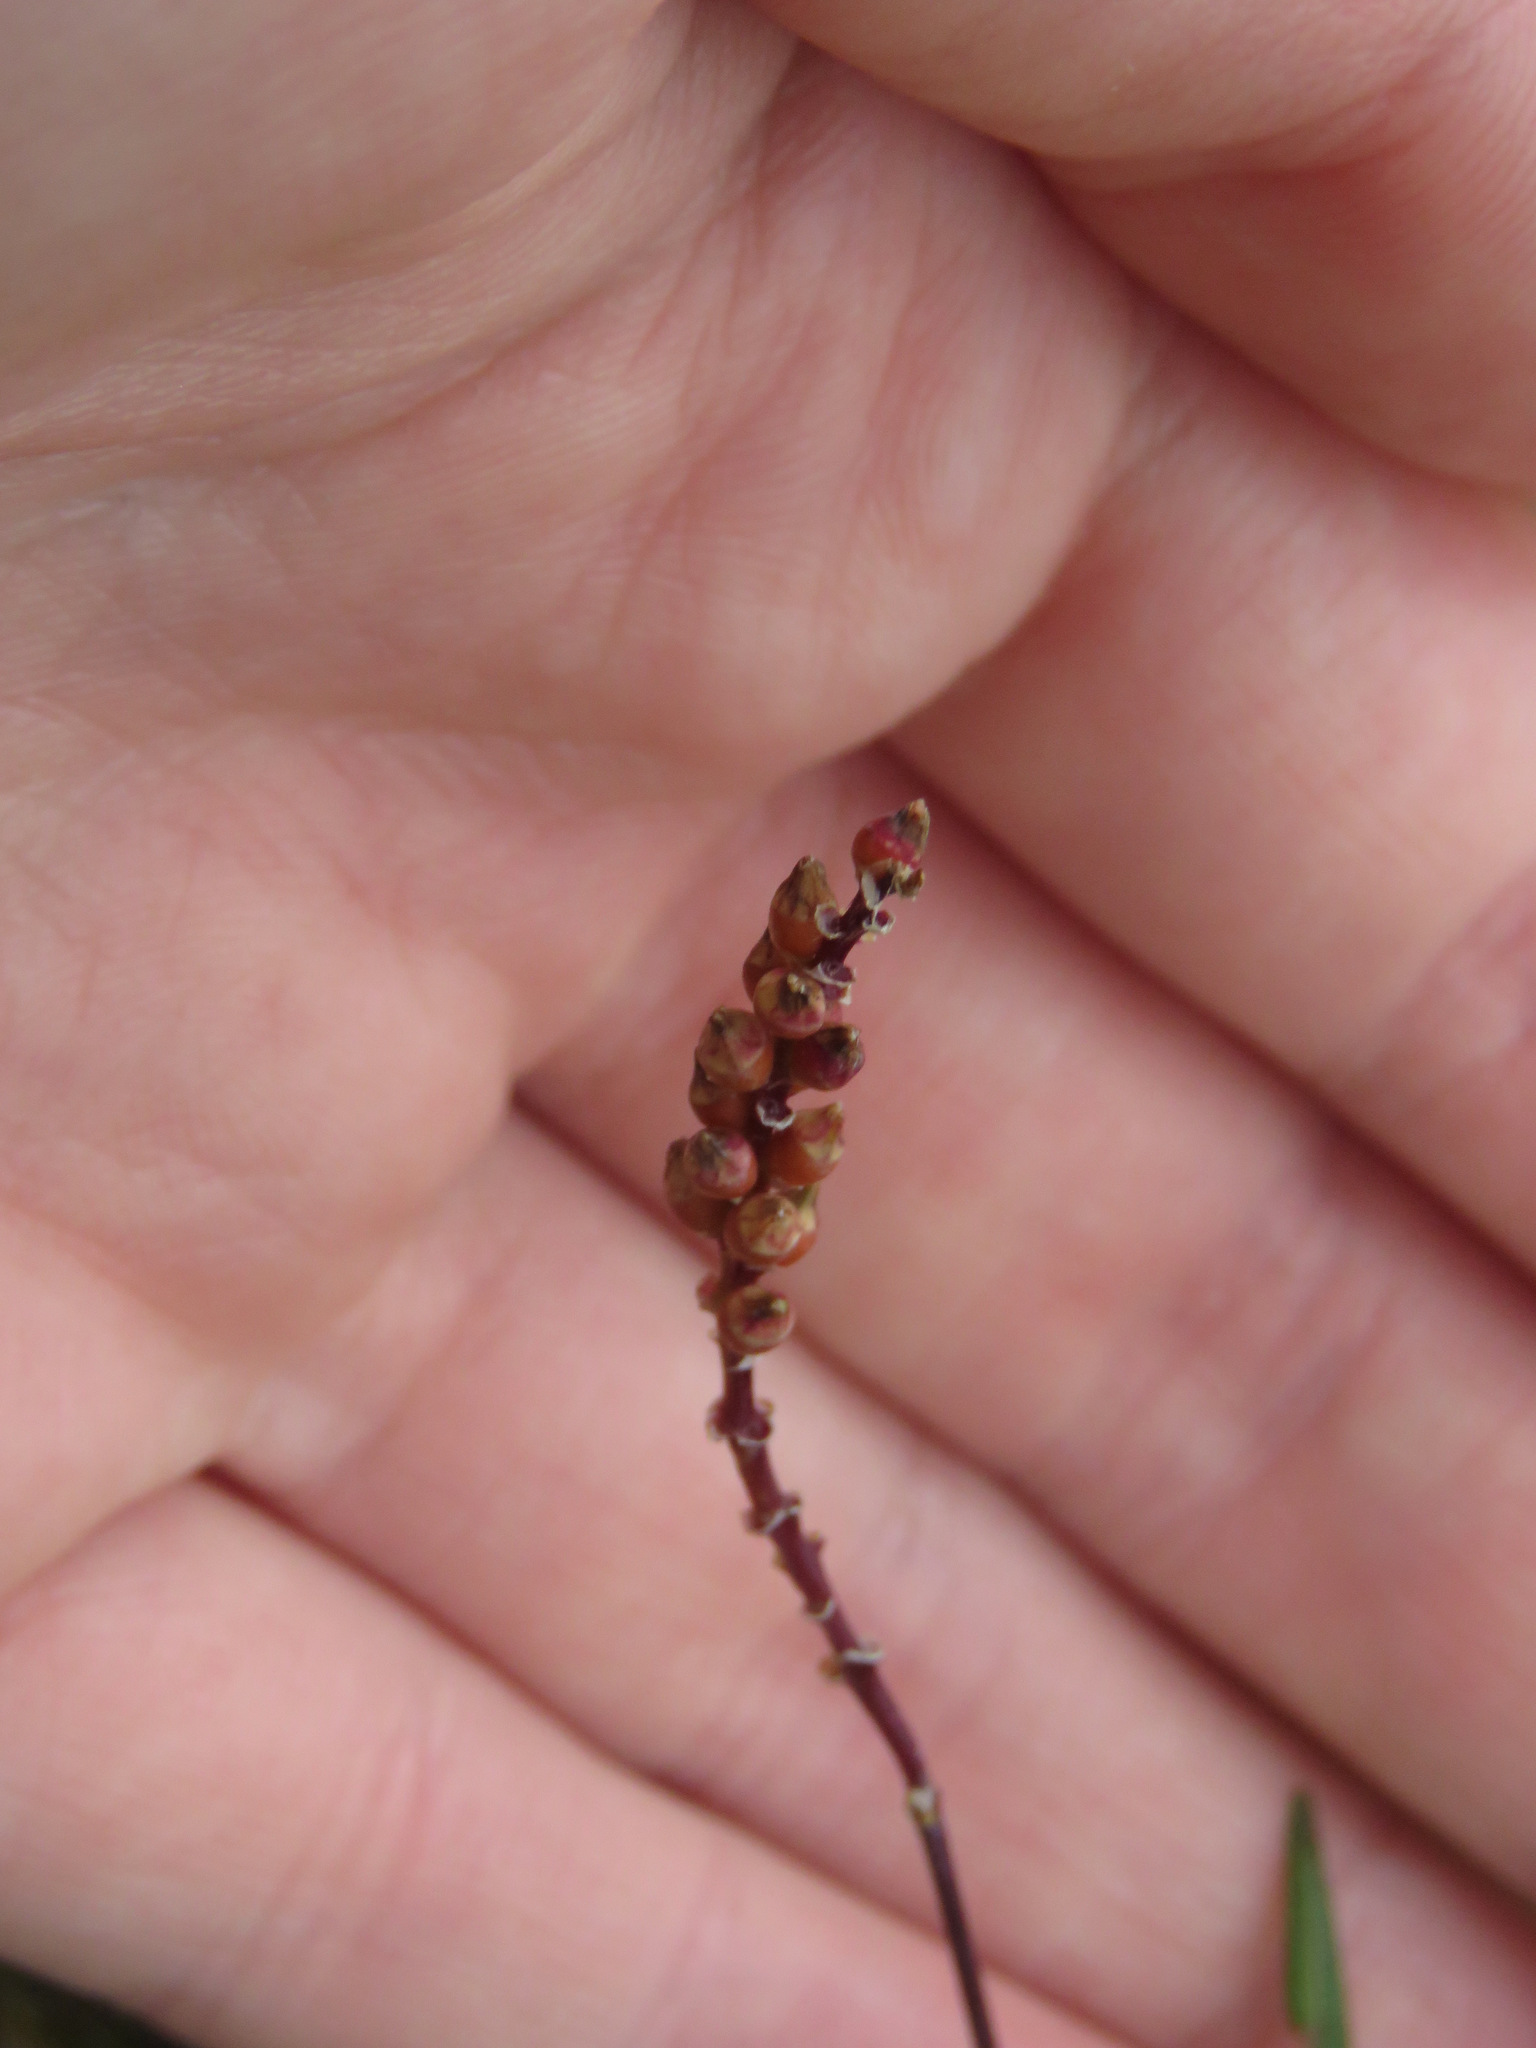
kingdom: Plantae
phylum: Tracheophyta
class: Magnoliopsida
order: Caryophyllales
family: Polygonaceae
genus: Bistorta
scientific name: Bistorta vivipara
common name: Alpine bistort
